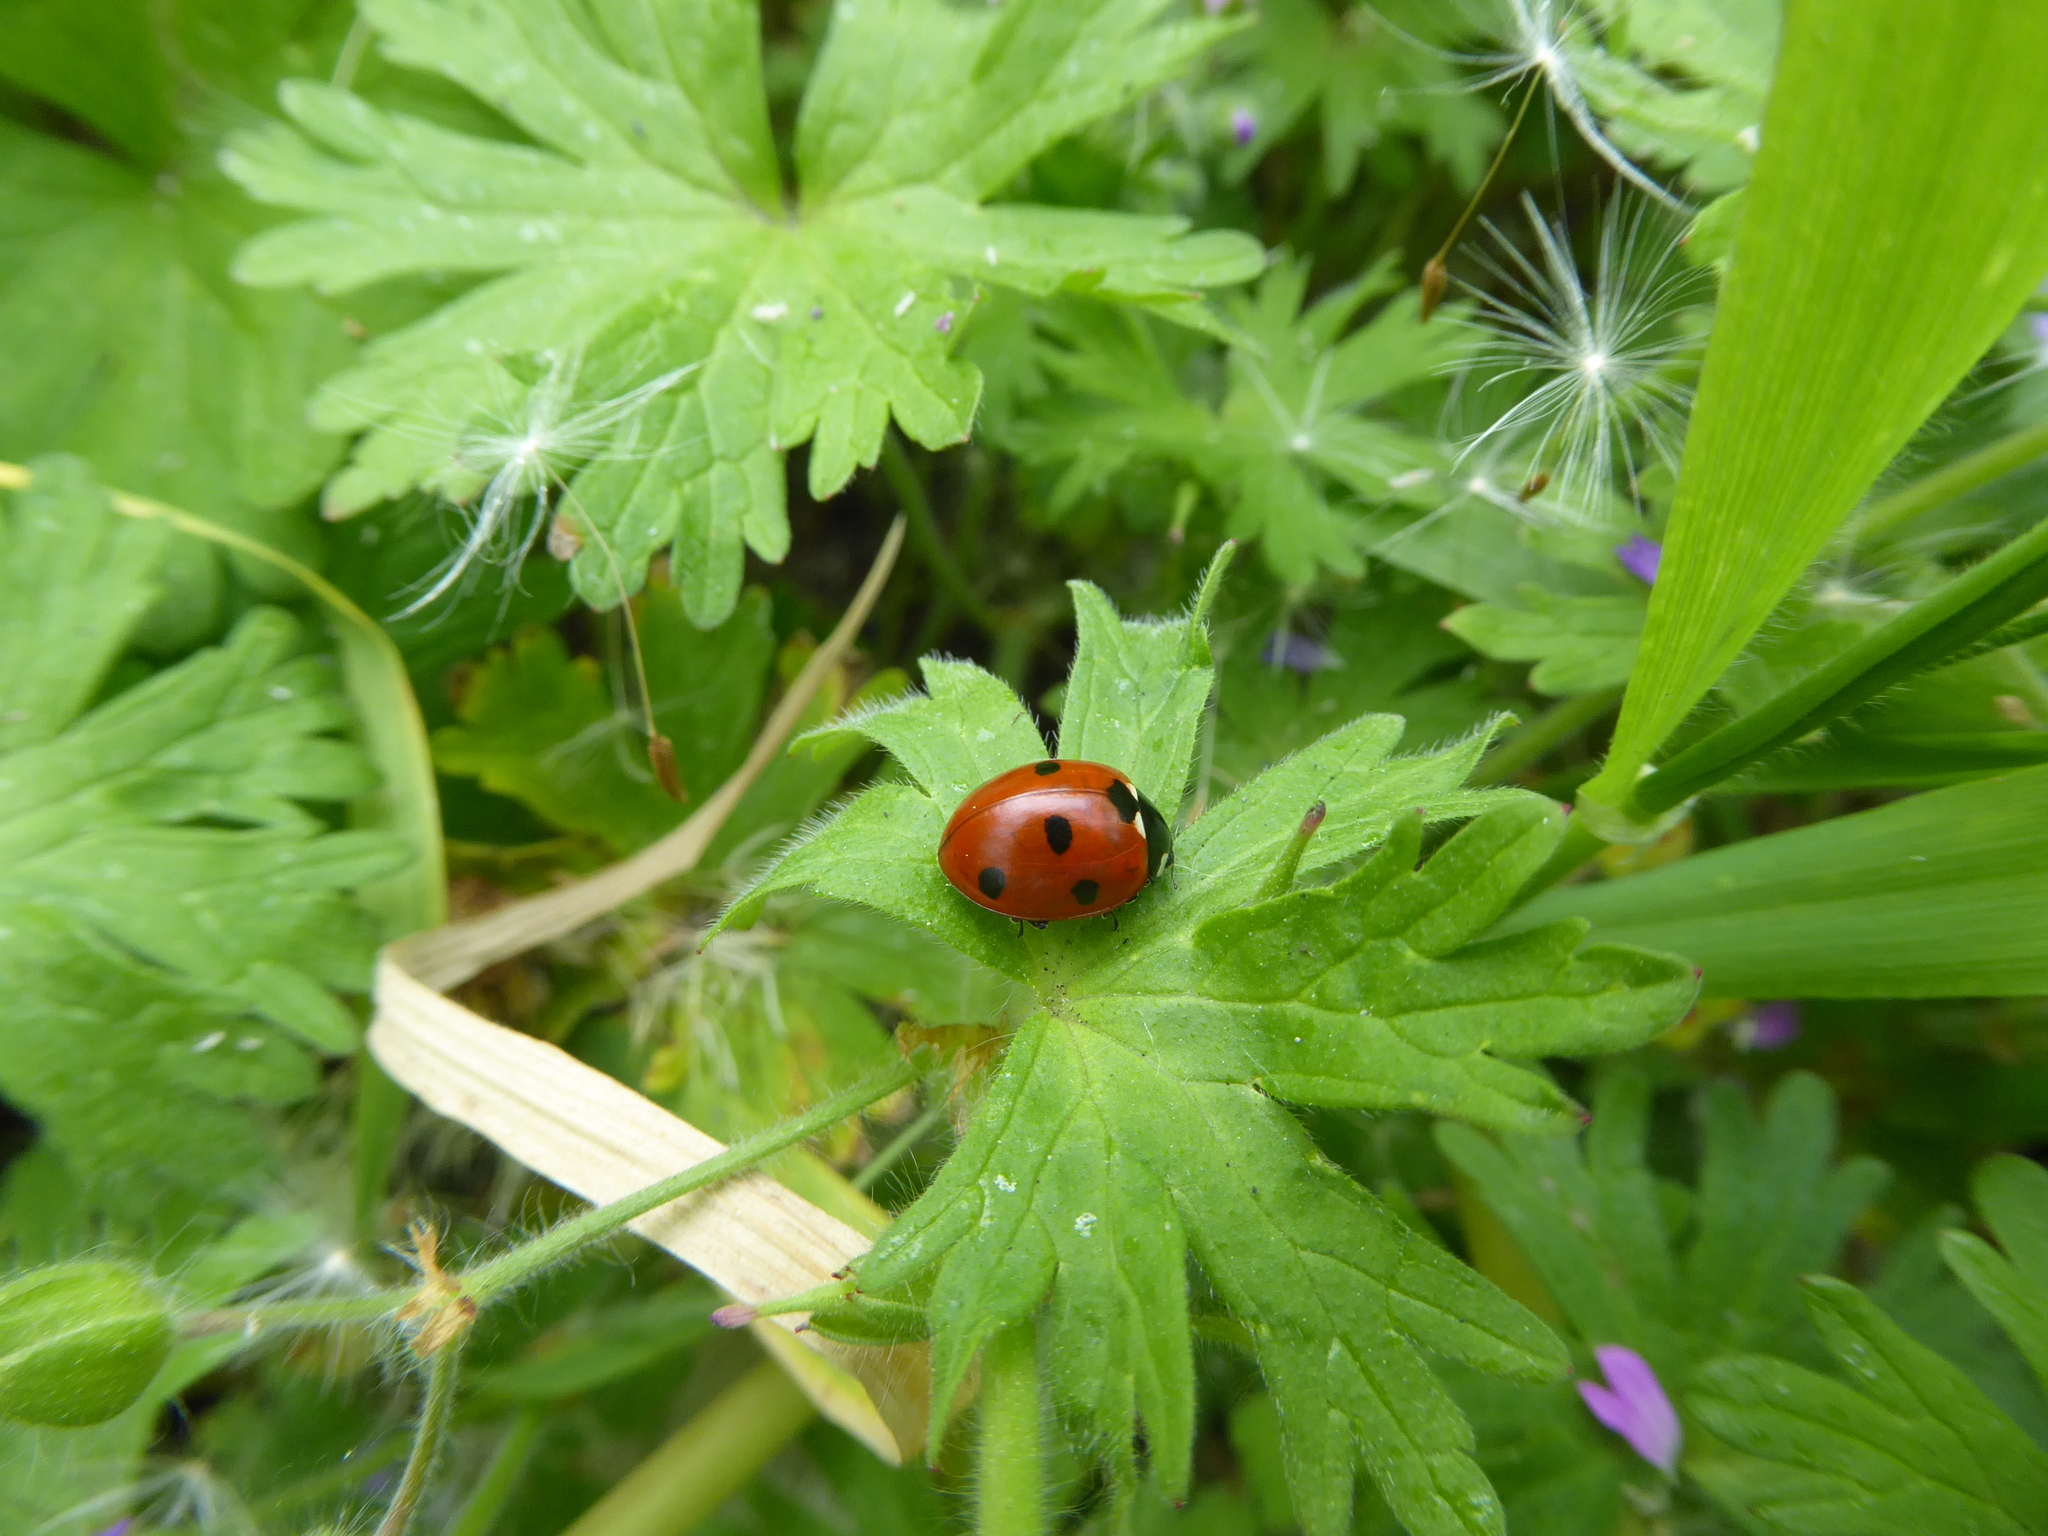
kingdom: Animalia
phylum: Arthropoda
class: Insecta
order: Coleoptera
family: Coccinellidae
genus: Coccinella
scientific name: Coccinella septempunctata
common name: Sevenspotted lady beetle
